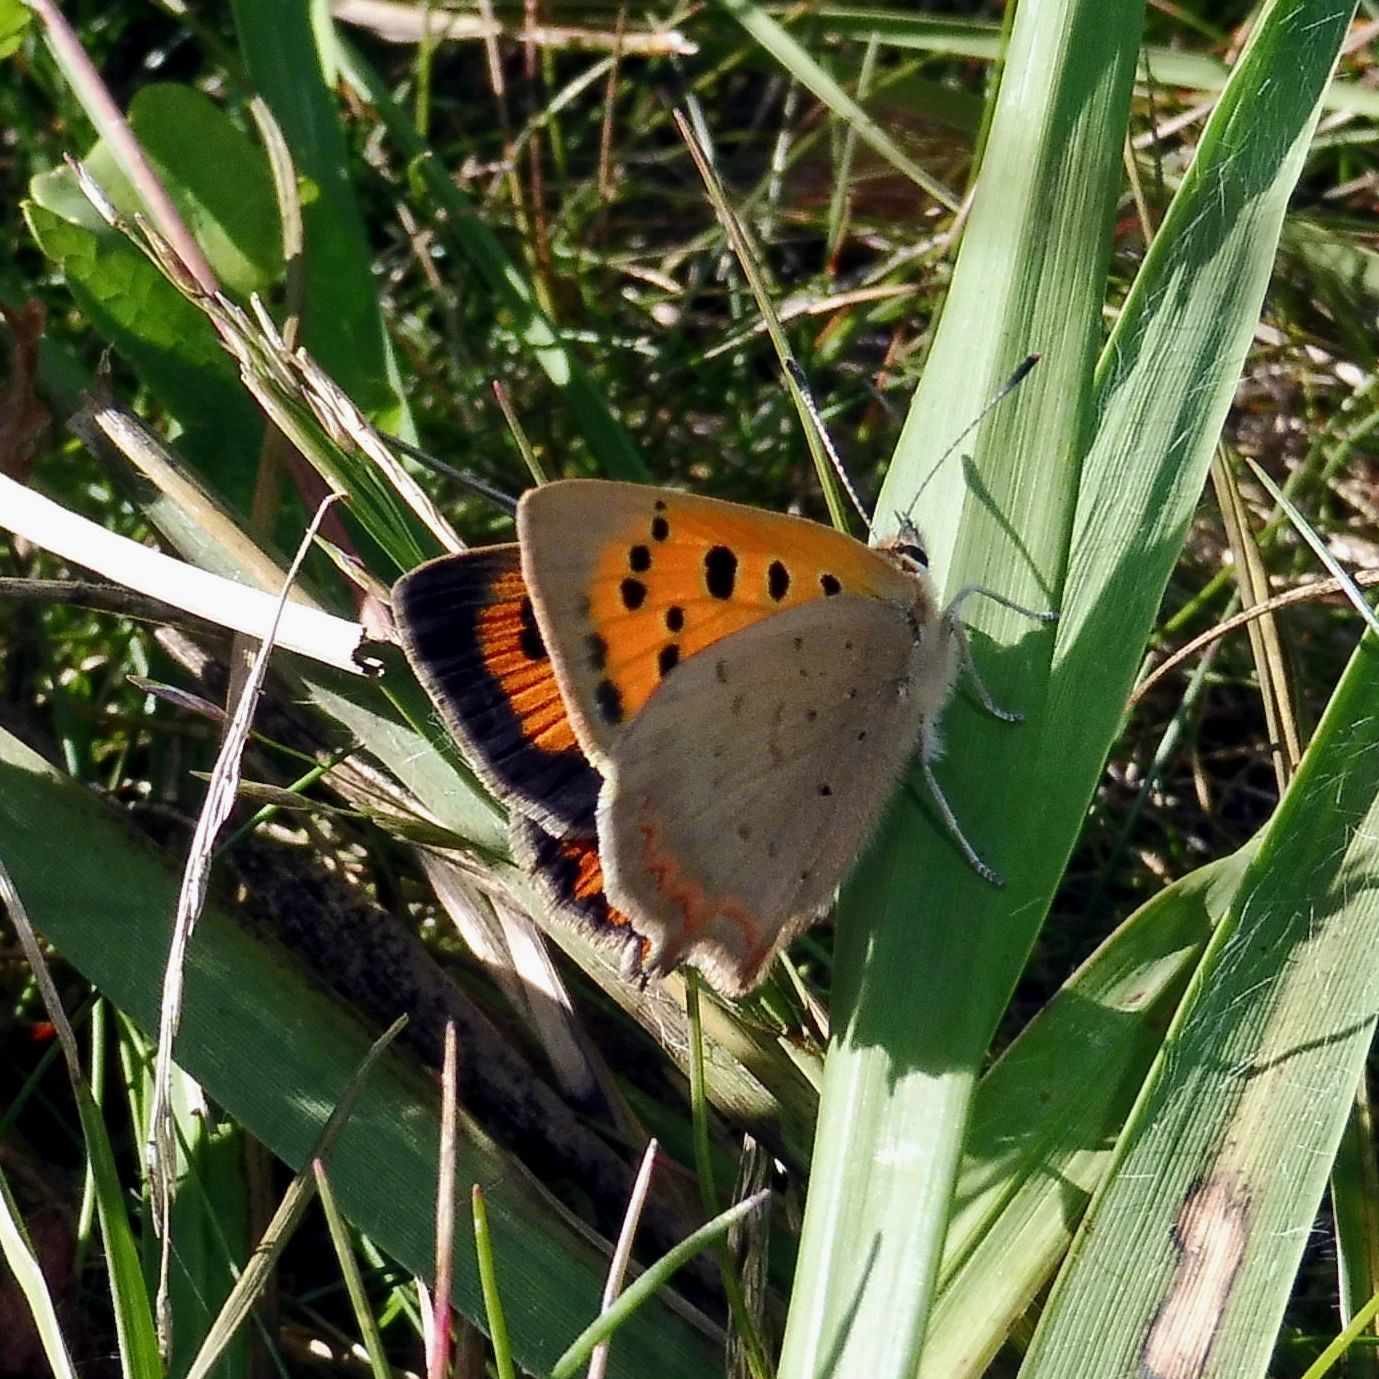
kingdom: Animalia
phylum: Arthropoda
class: Insecta
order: Lepidoptera
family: Lycaenidae
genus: Lycaena
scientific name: Lycaena phlaeas
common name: Small copper
